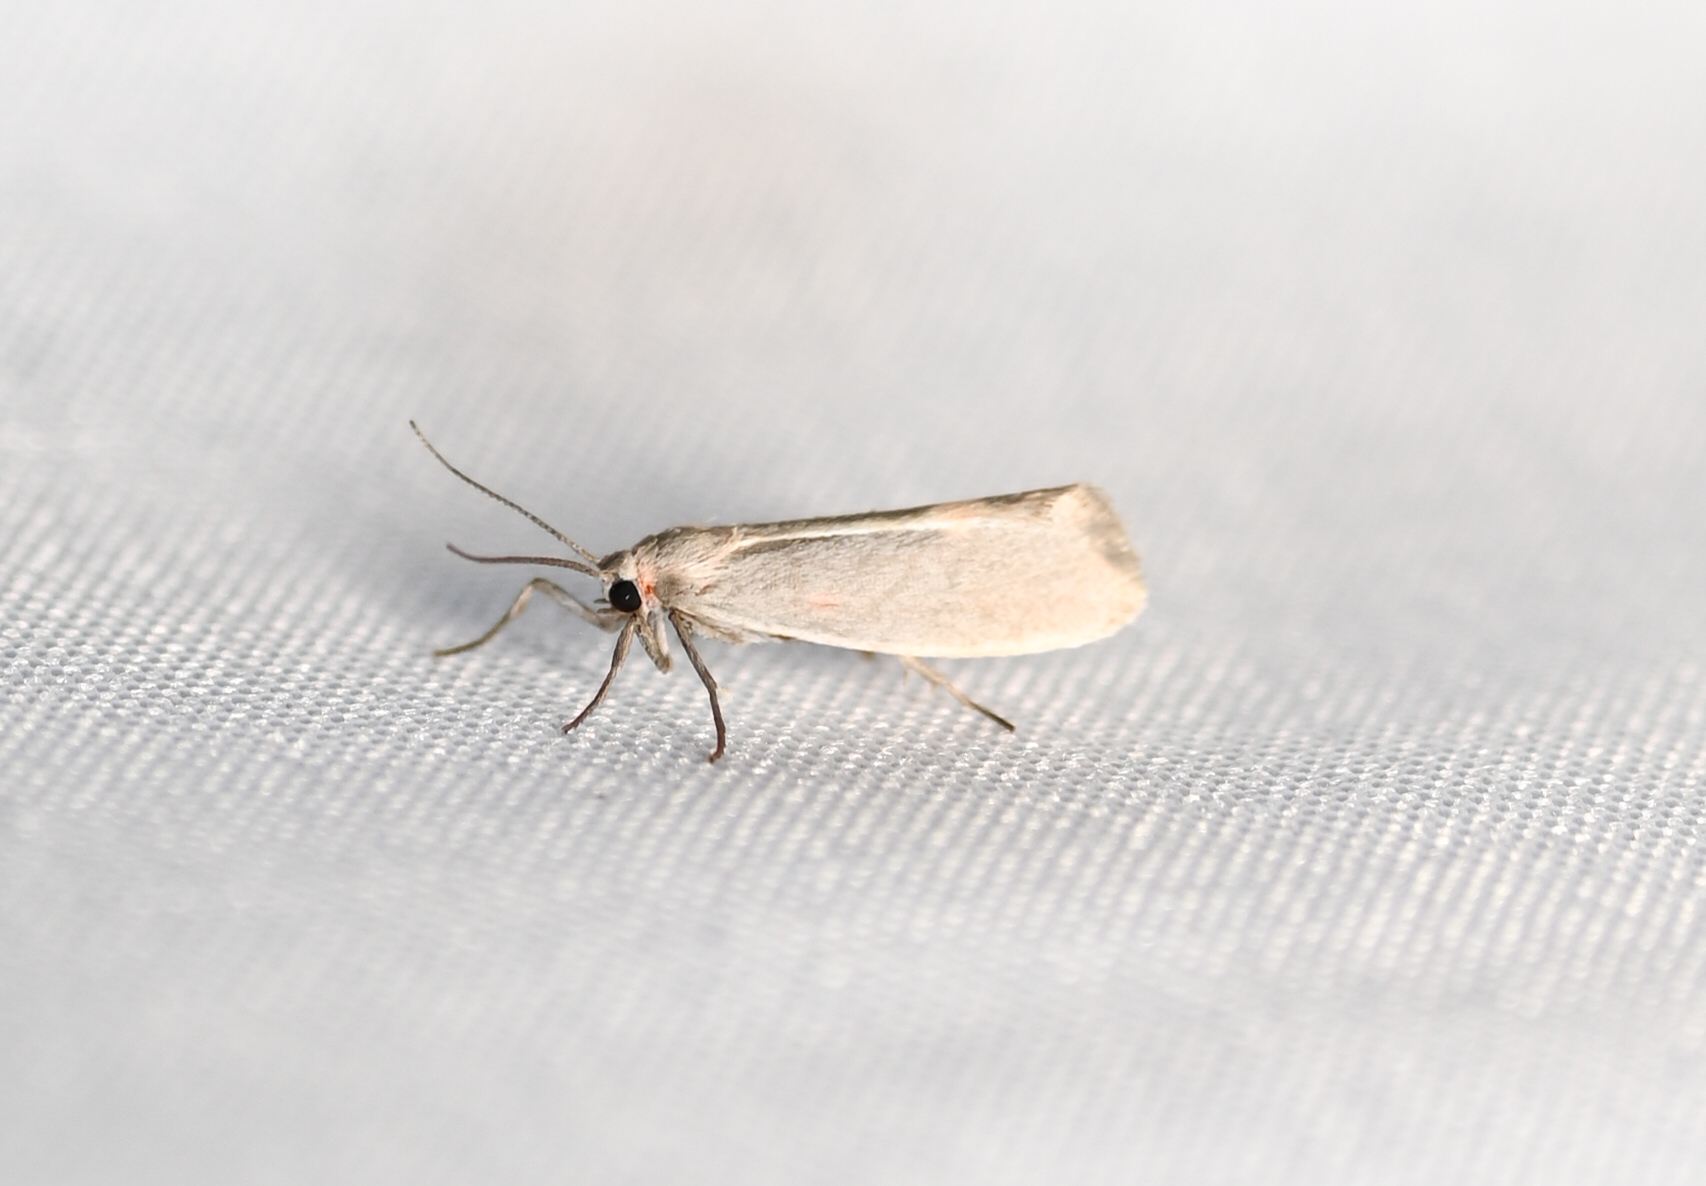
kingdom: Animalia
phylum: Arthropoda
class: Insecta
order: Lepidoptera
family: Erebidae
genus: Cisthene
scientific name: Cisthene plumbea
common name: Lead colored lichen moth
